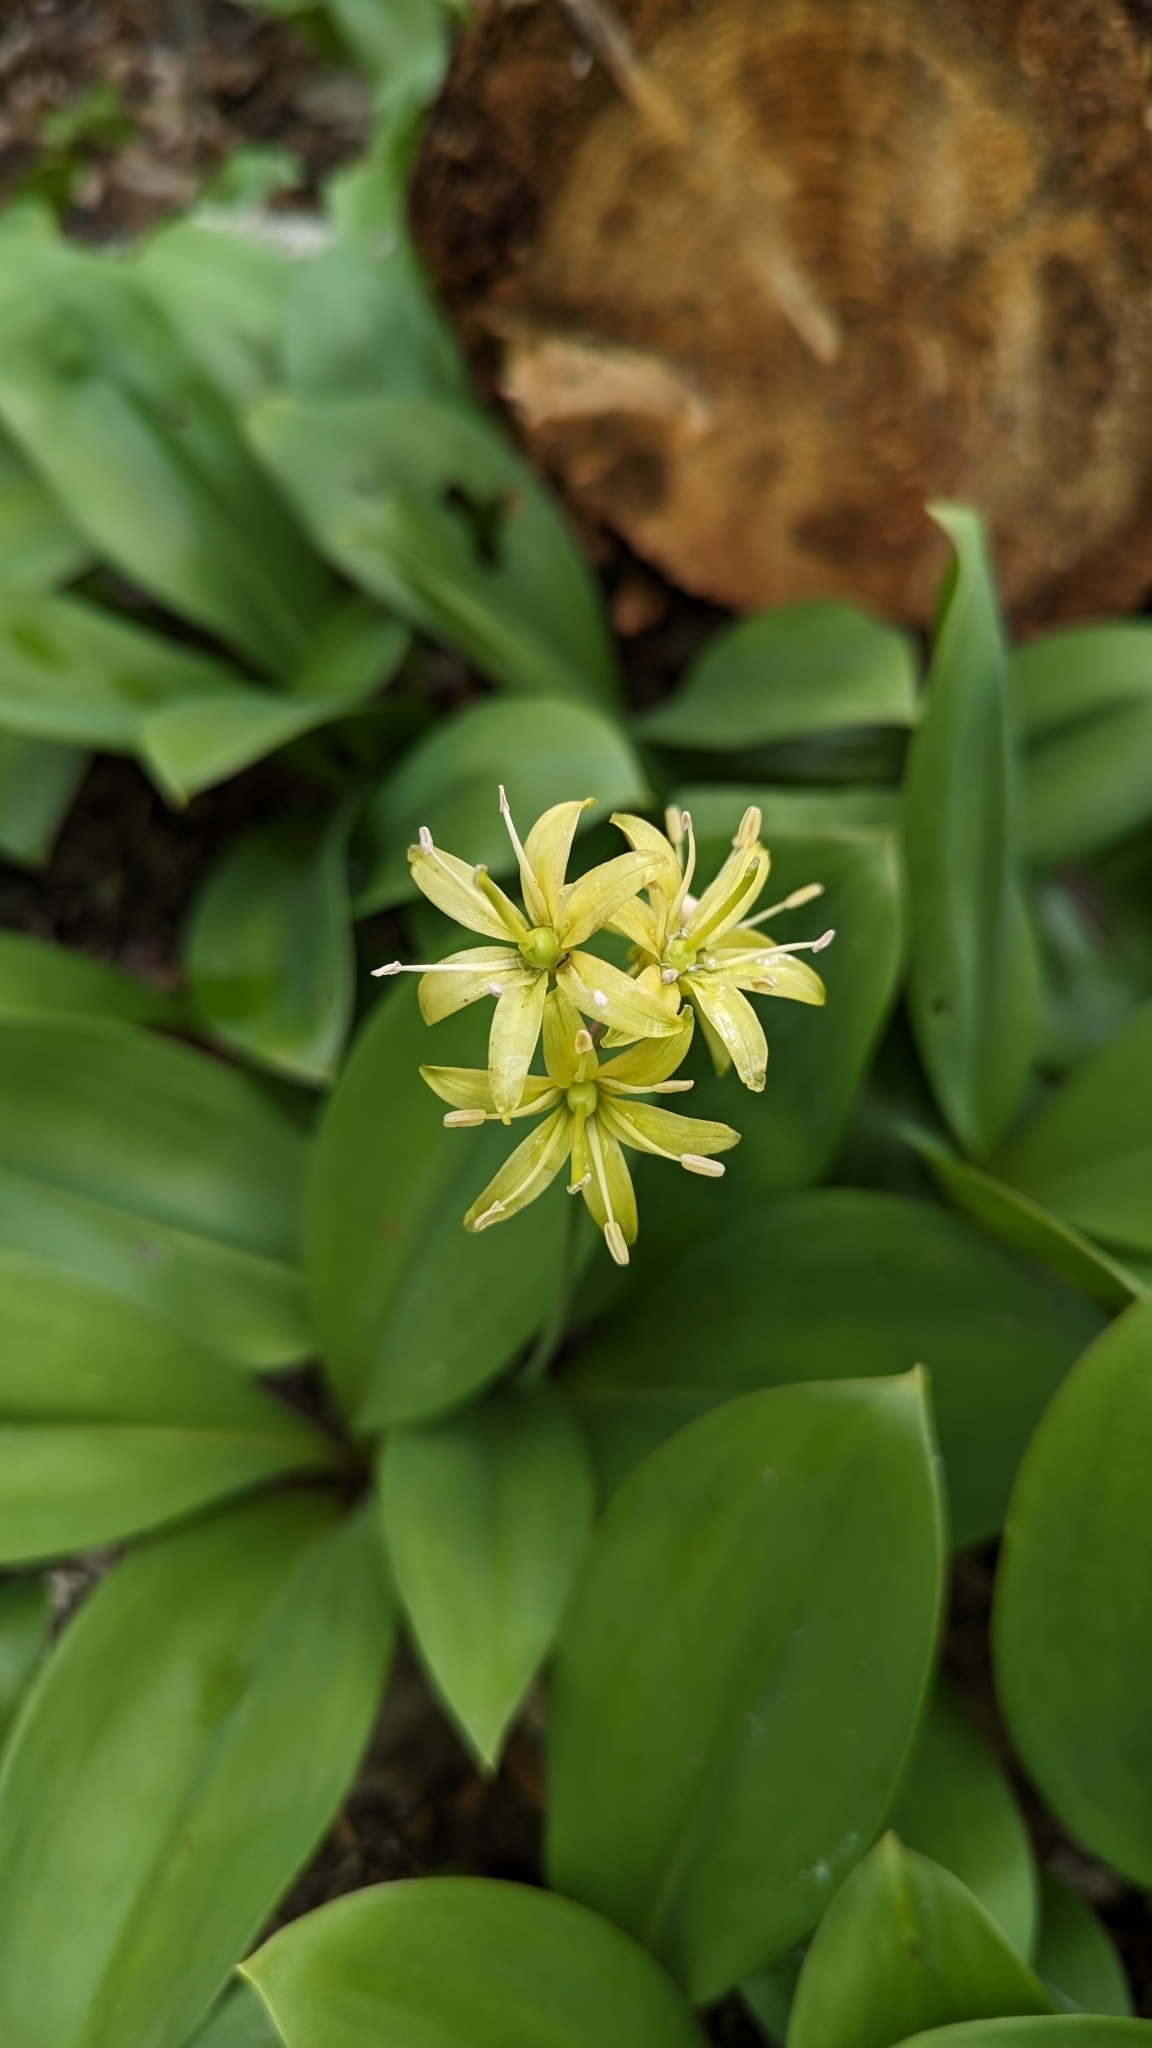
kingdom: Plantae
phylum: Tracheophyta
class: Liliopsida
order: Liliales
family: Liliaceae
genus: Clintonia
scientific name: Clintonia borealis
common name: Yellow clintonia
